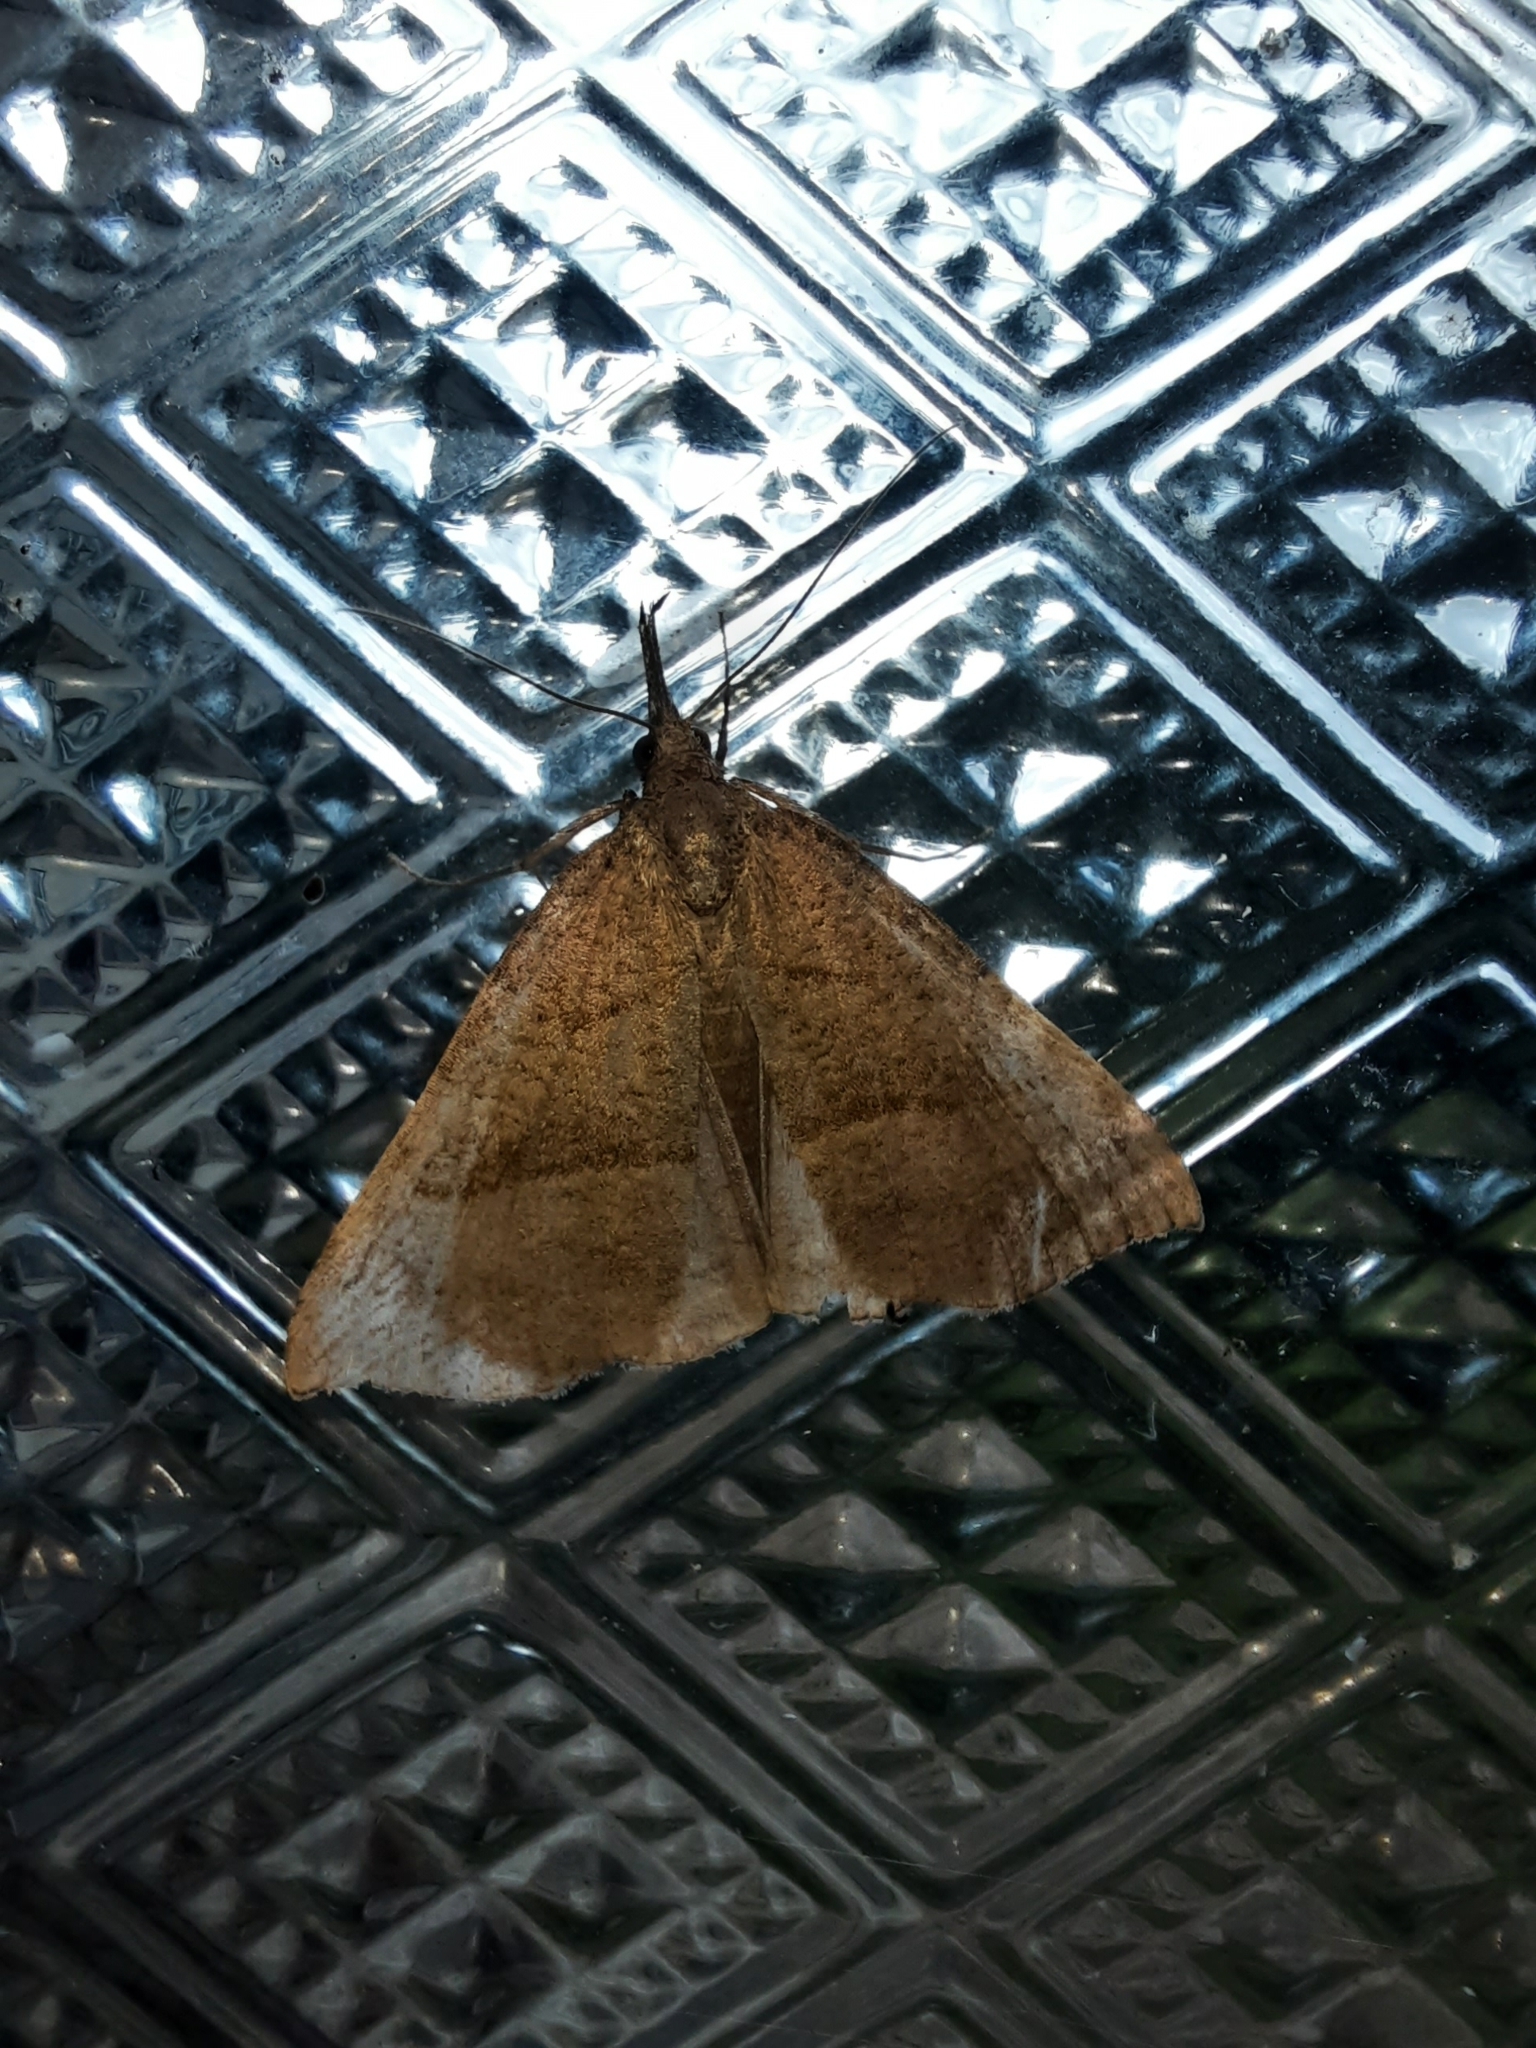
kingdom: Animalia
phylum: Arthropoda
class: Insecta
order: Lepidoptera
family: Erebidae
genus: Hypena
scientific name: Hypena proboscidalis
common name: Snout
